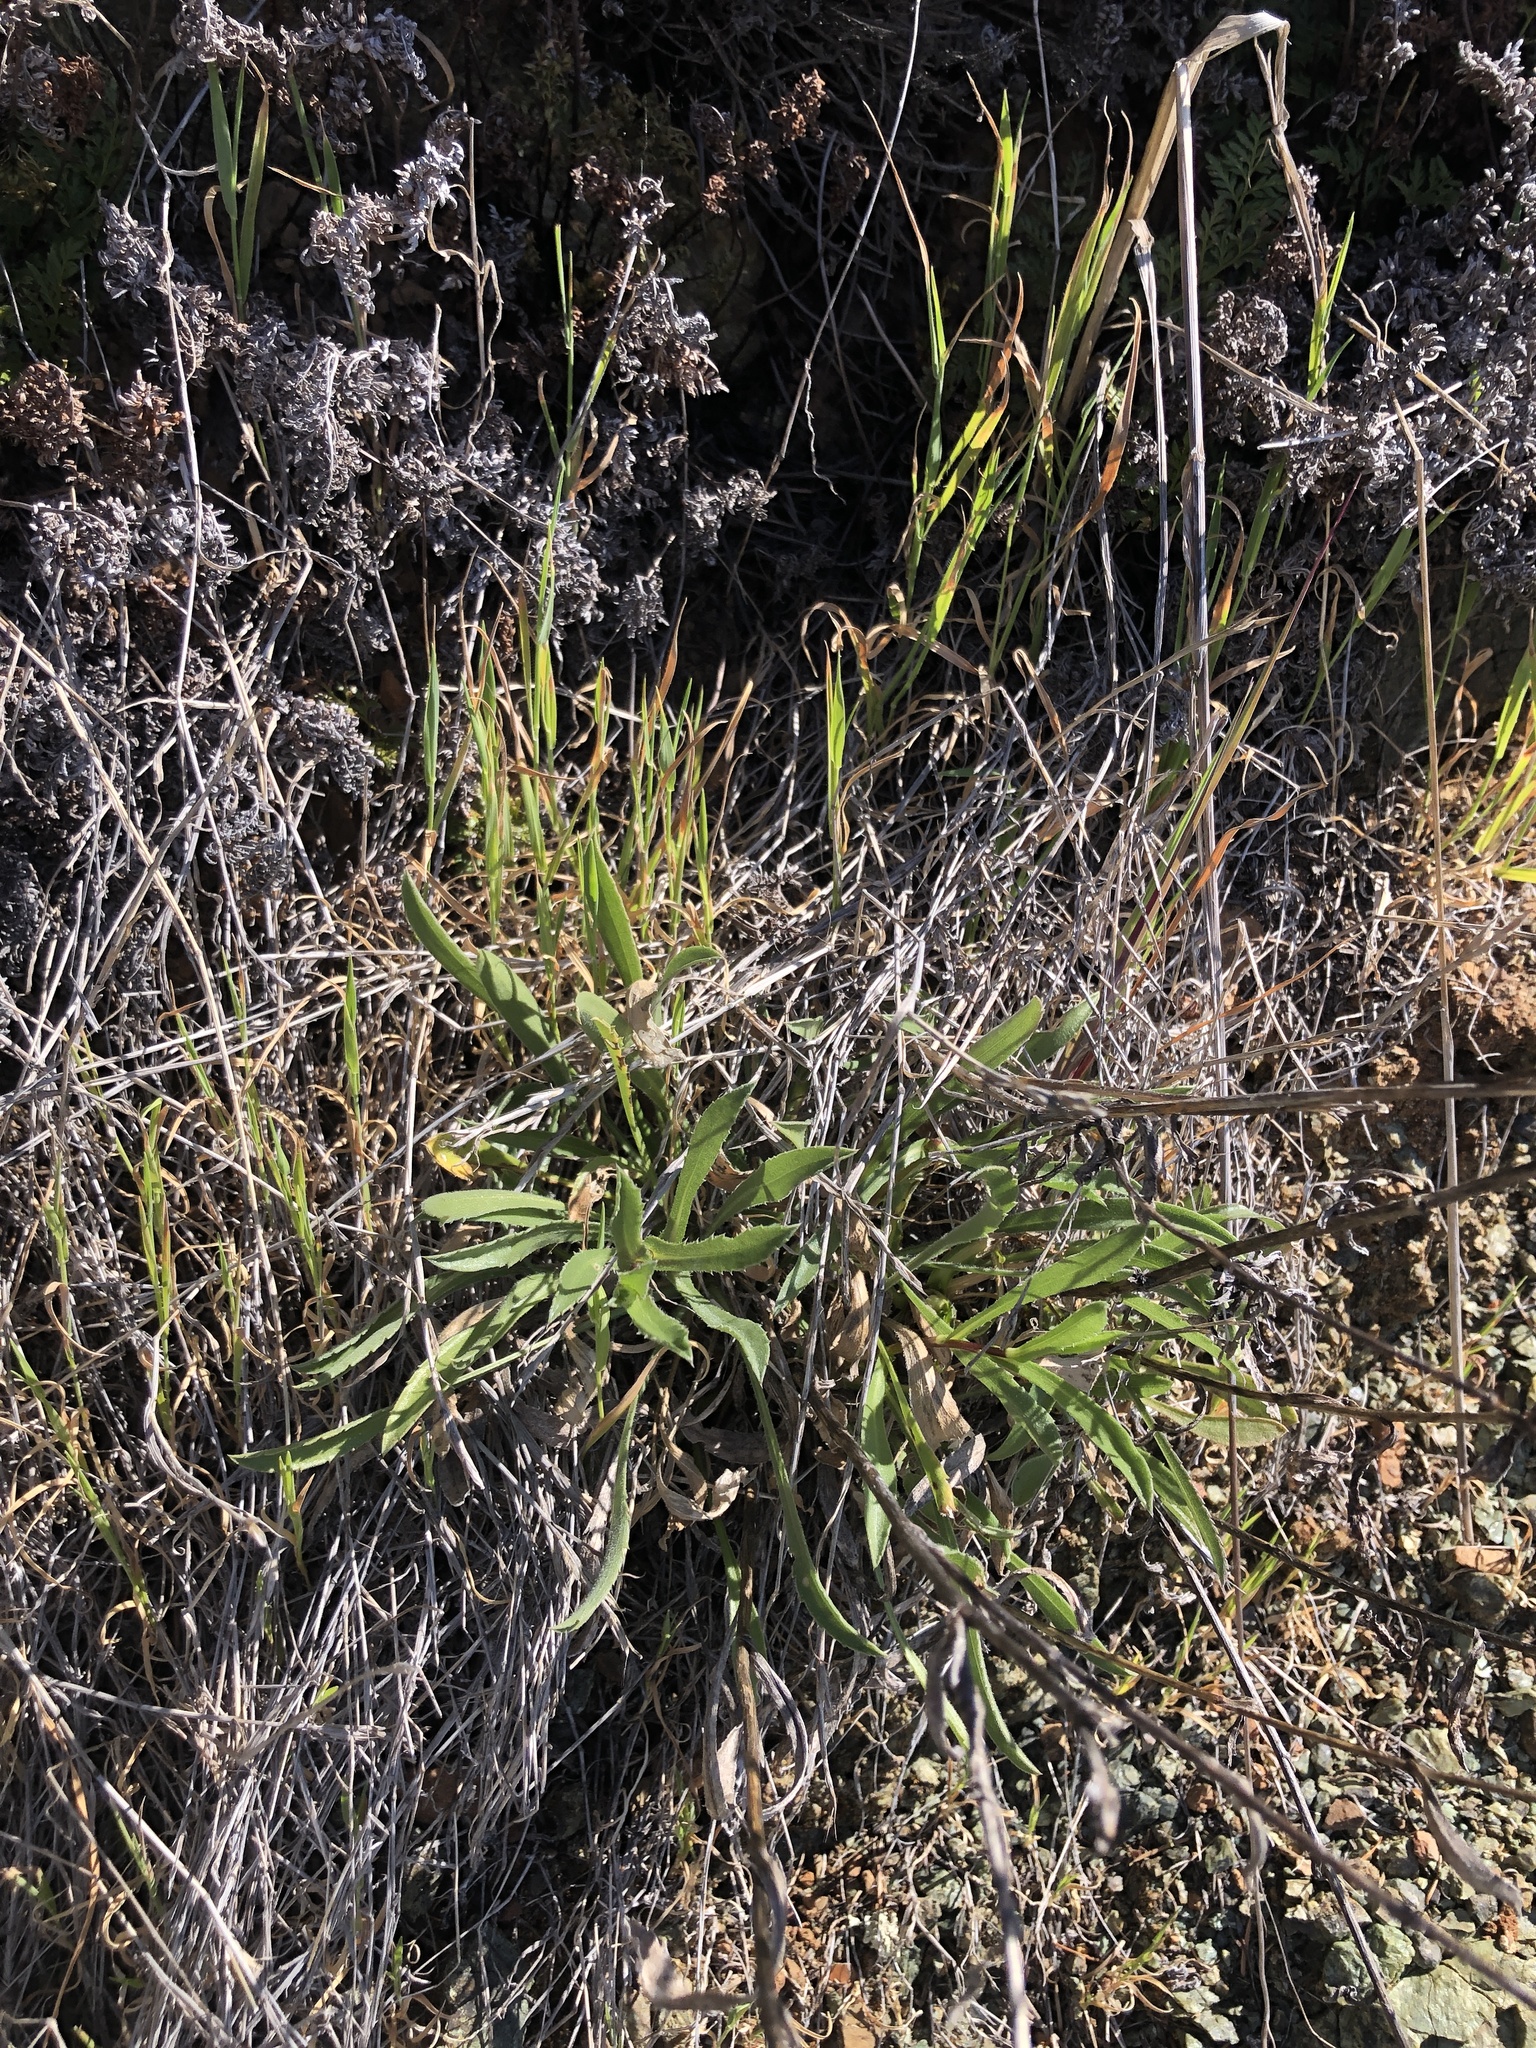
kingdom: Plantae
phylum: Tracheophyta
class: Magnoliopsida
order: Asterales
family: Asteraceae
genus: Grindelia
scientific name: Grindelia hirsutula
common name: Hairy gumweed
